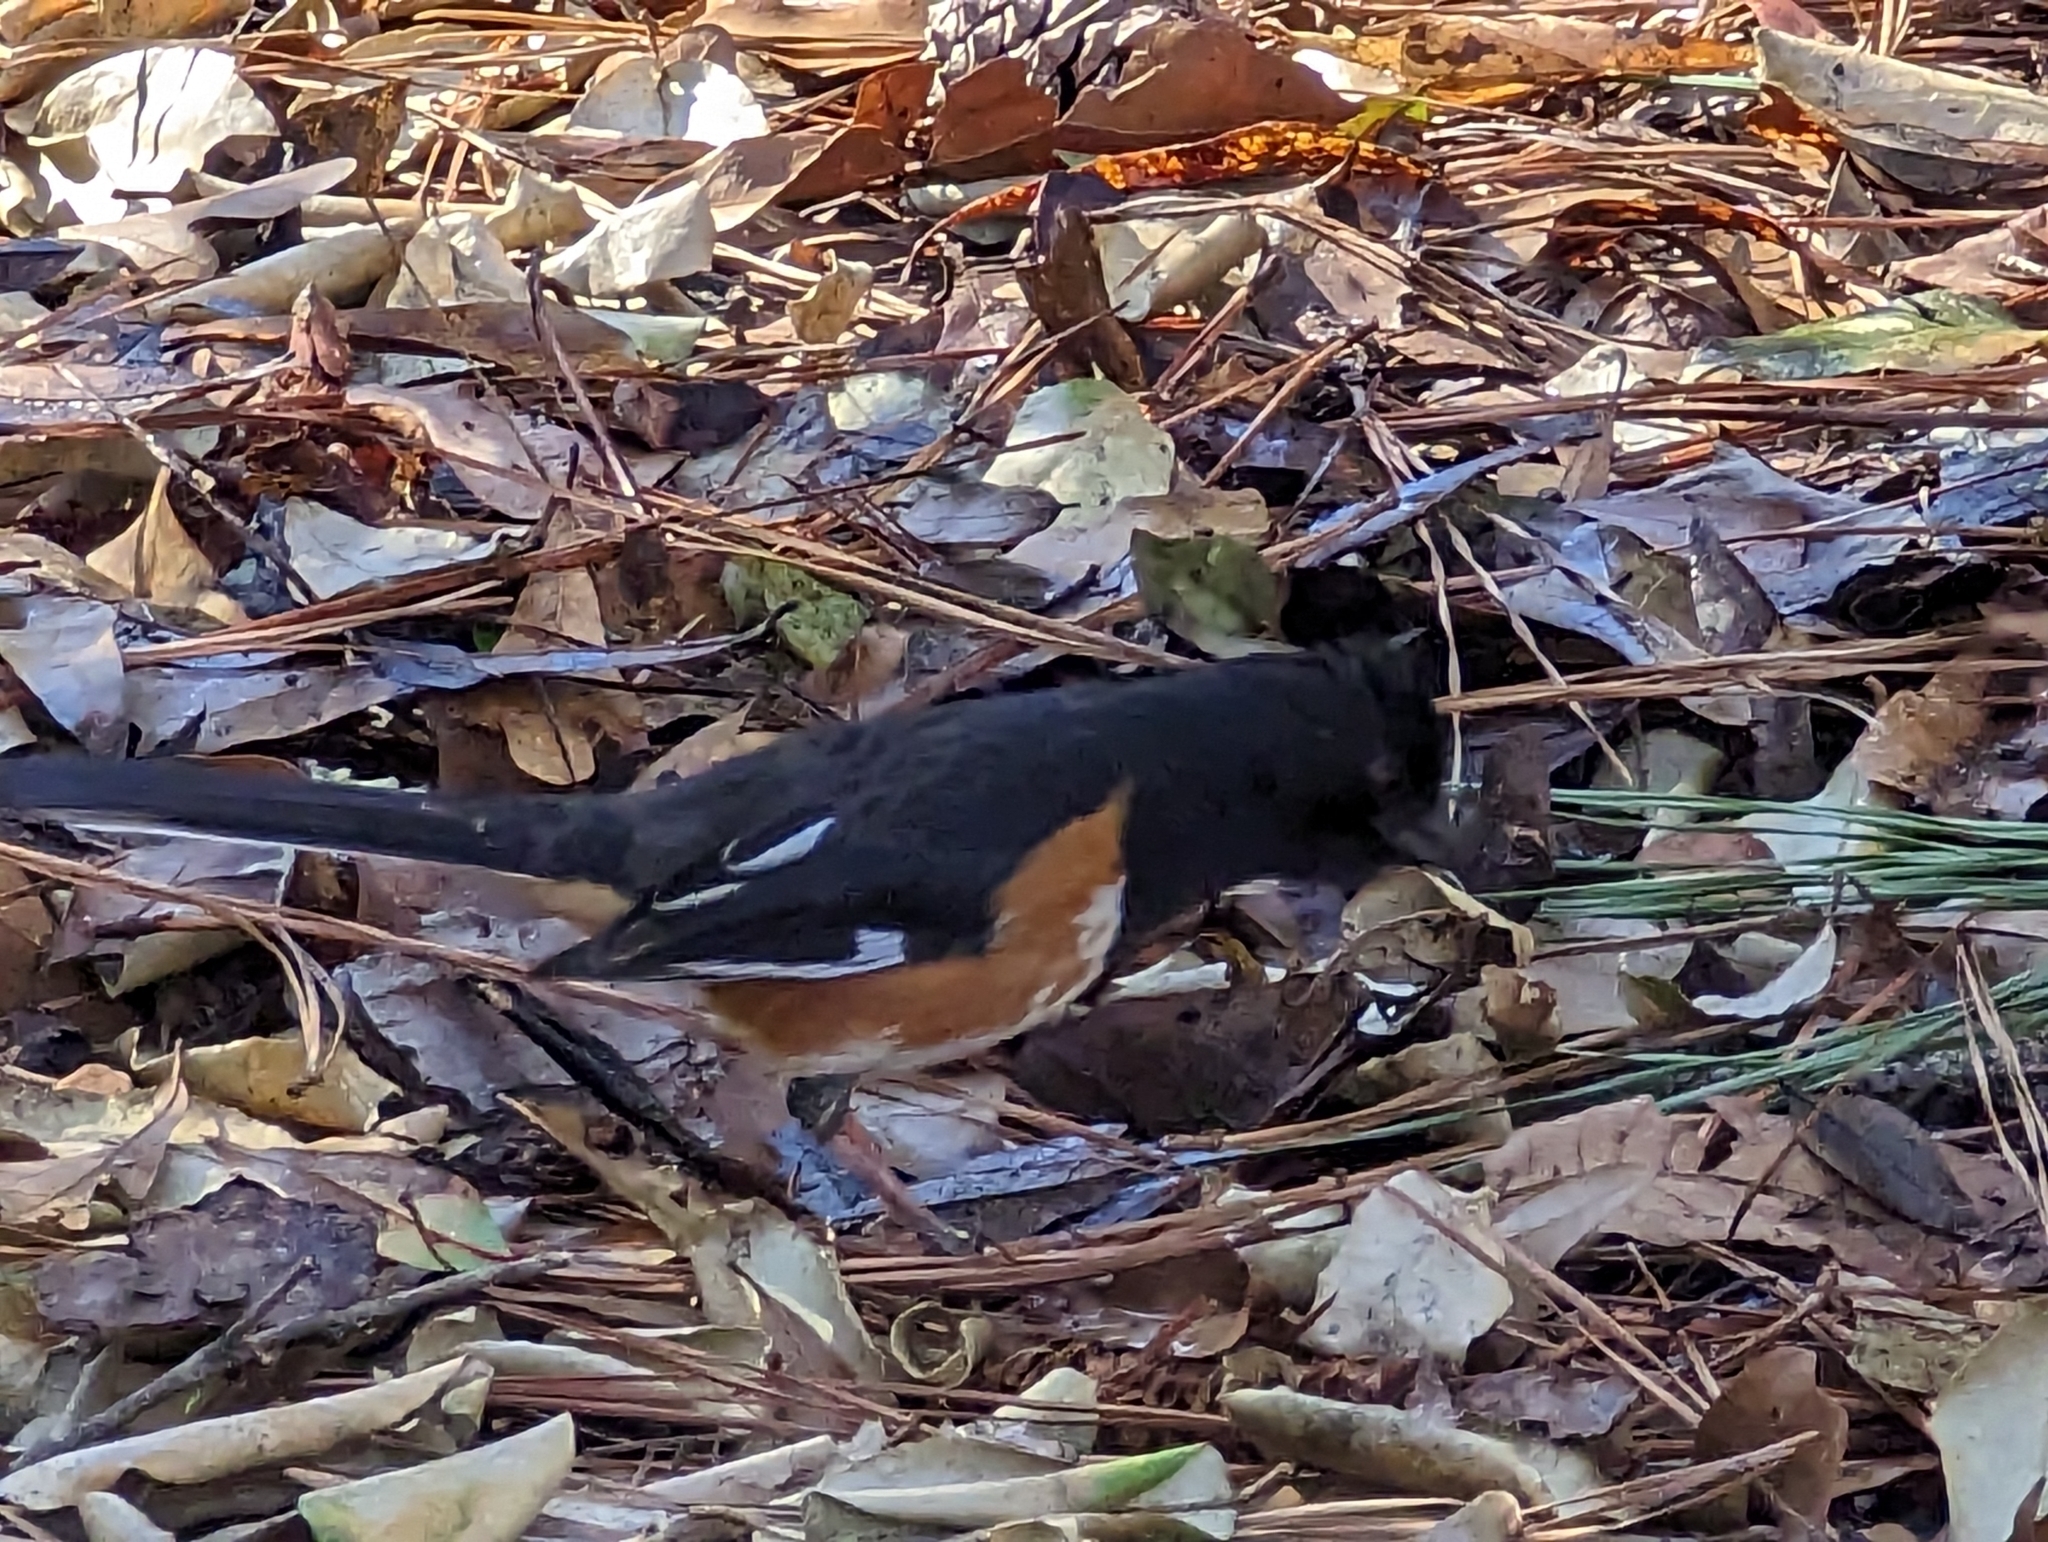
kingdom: Animalia
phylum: Chordata
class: Aves
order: Passeriformes
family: Passerellidae
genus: Pipilo
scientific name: Pipilo erythrophthalmus
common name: Eastern towhee
